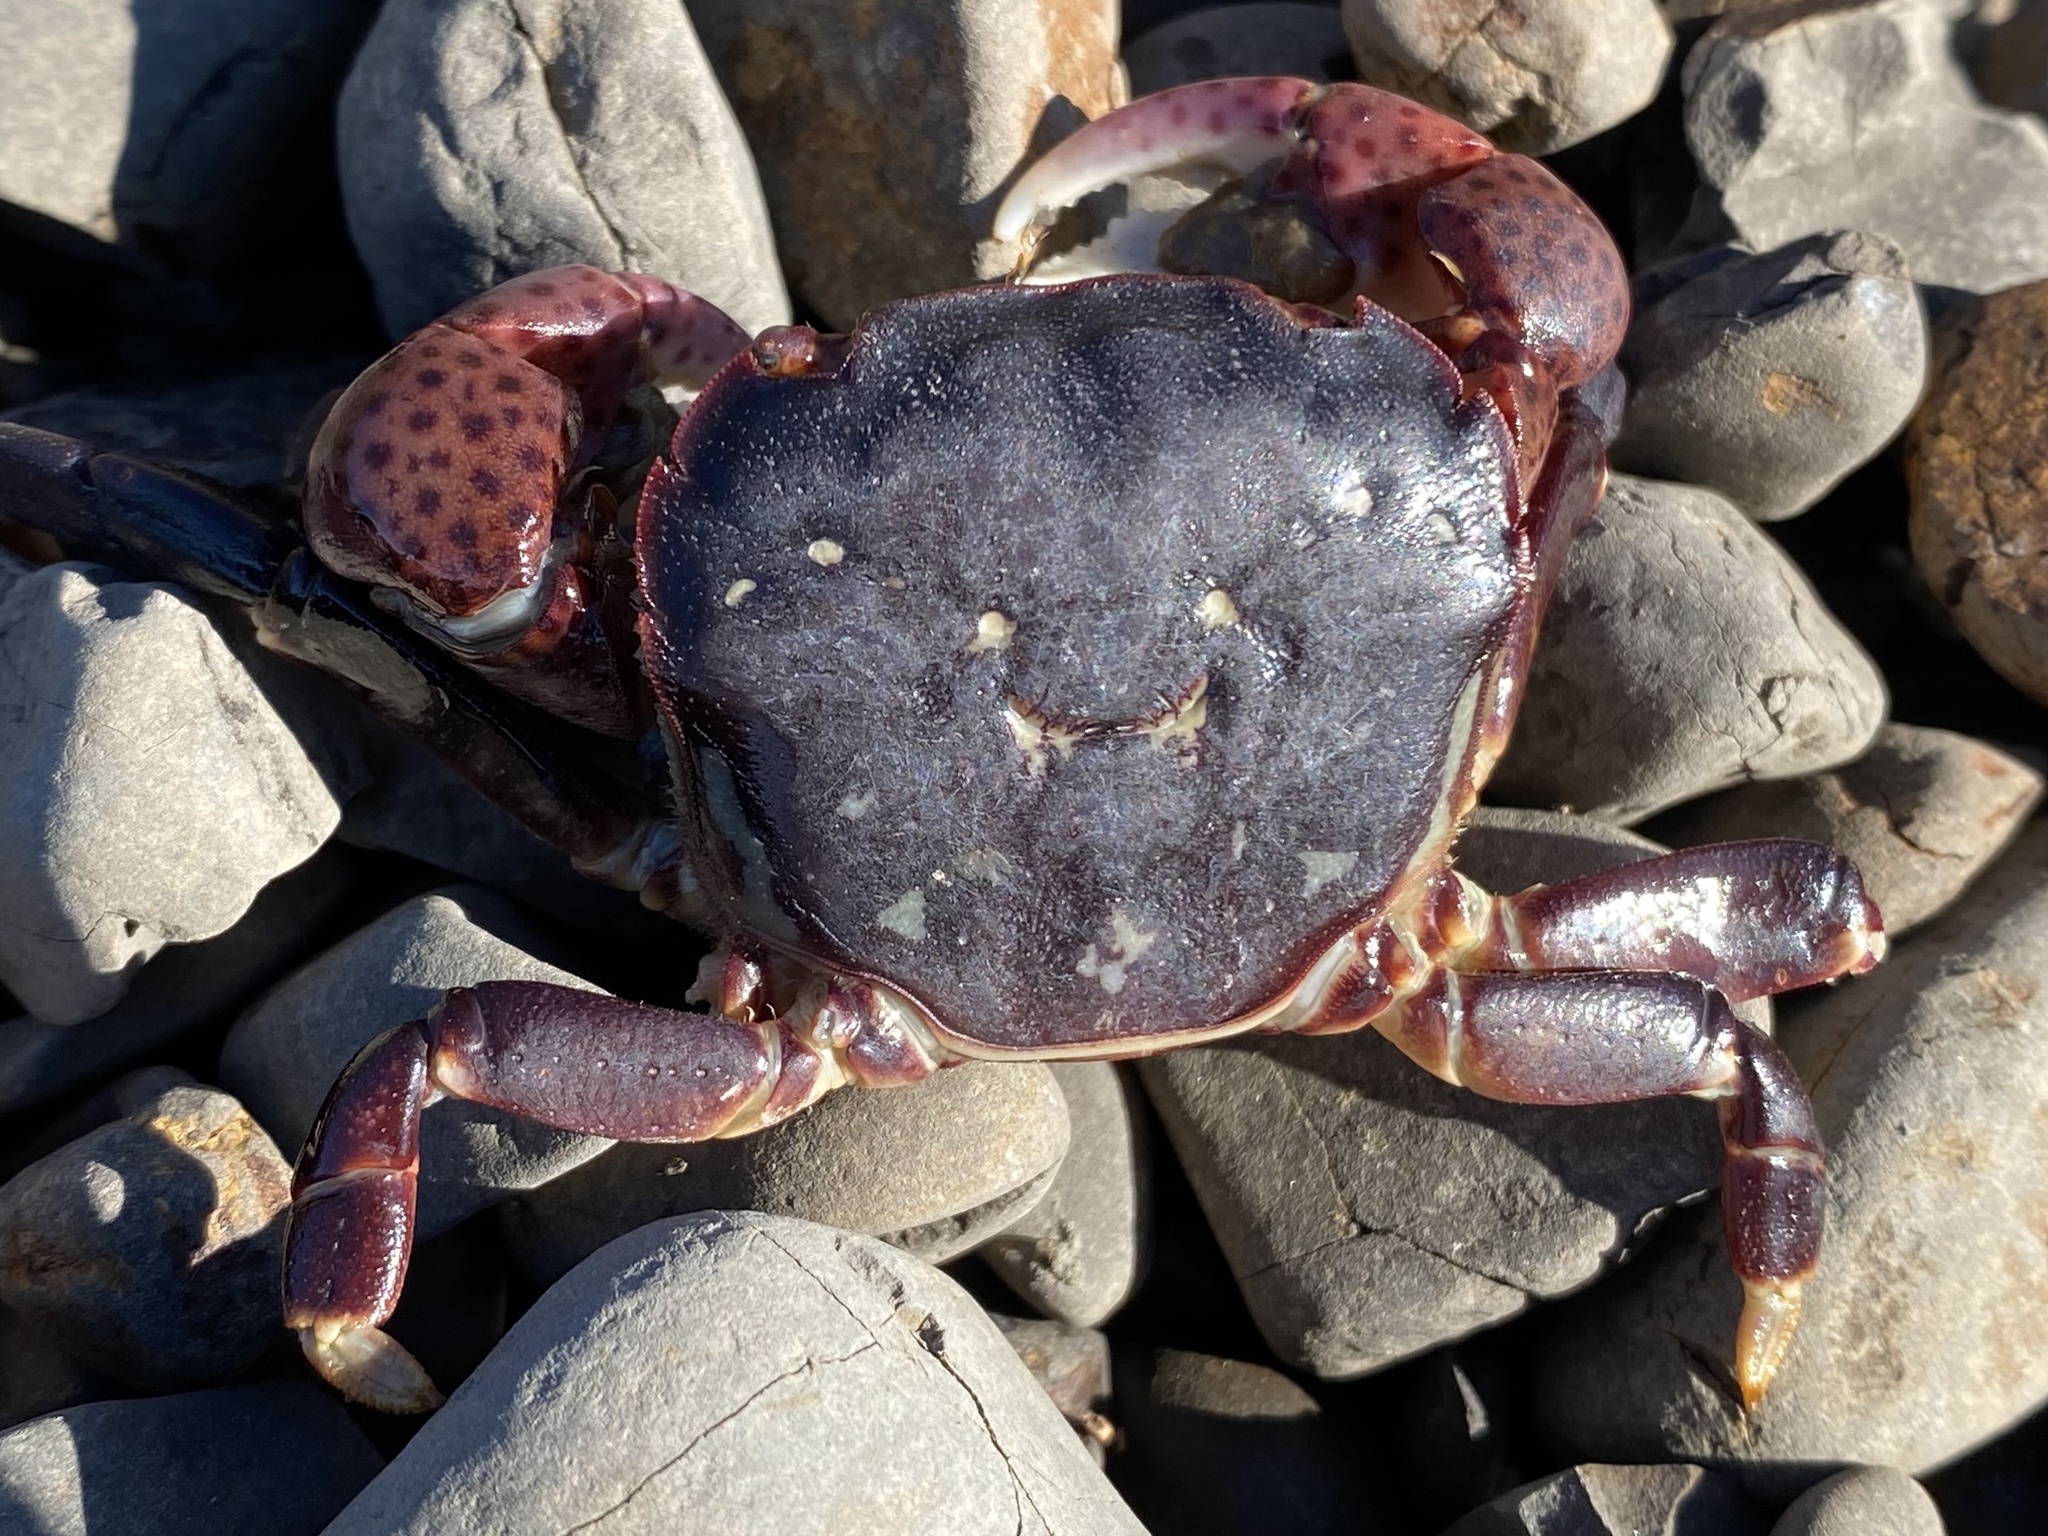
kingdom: Animalia
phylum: Arthropoda
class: Malacostraca
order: Decapoda
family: Varunidae
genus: Hemigrapsus
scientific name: Hemigrapsus nudus
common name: Purple shore crab
